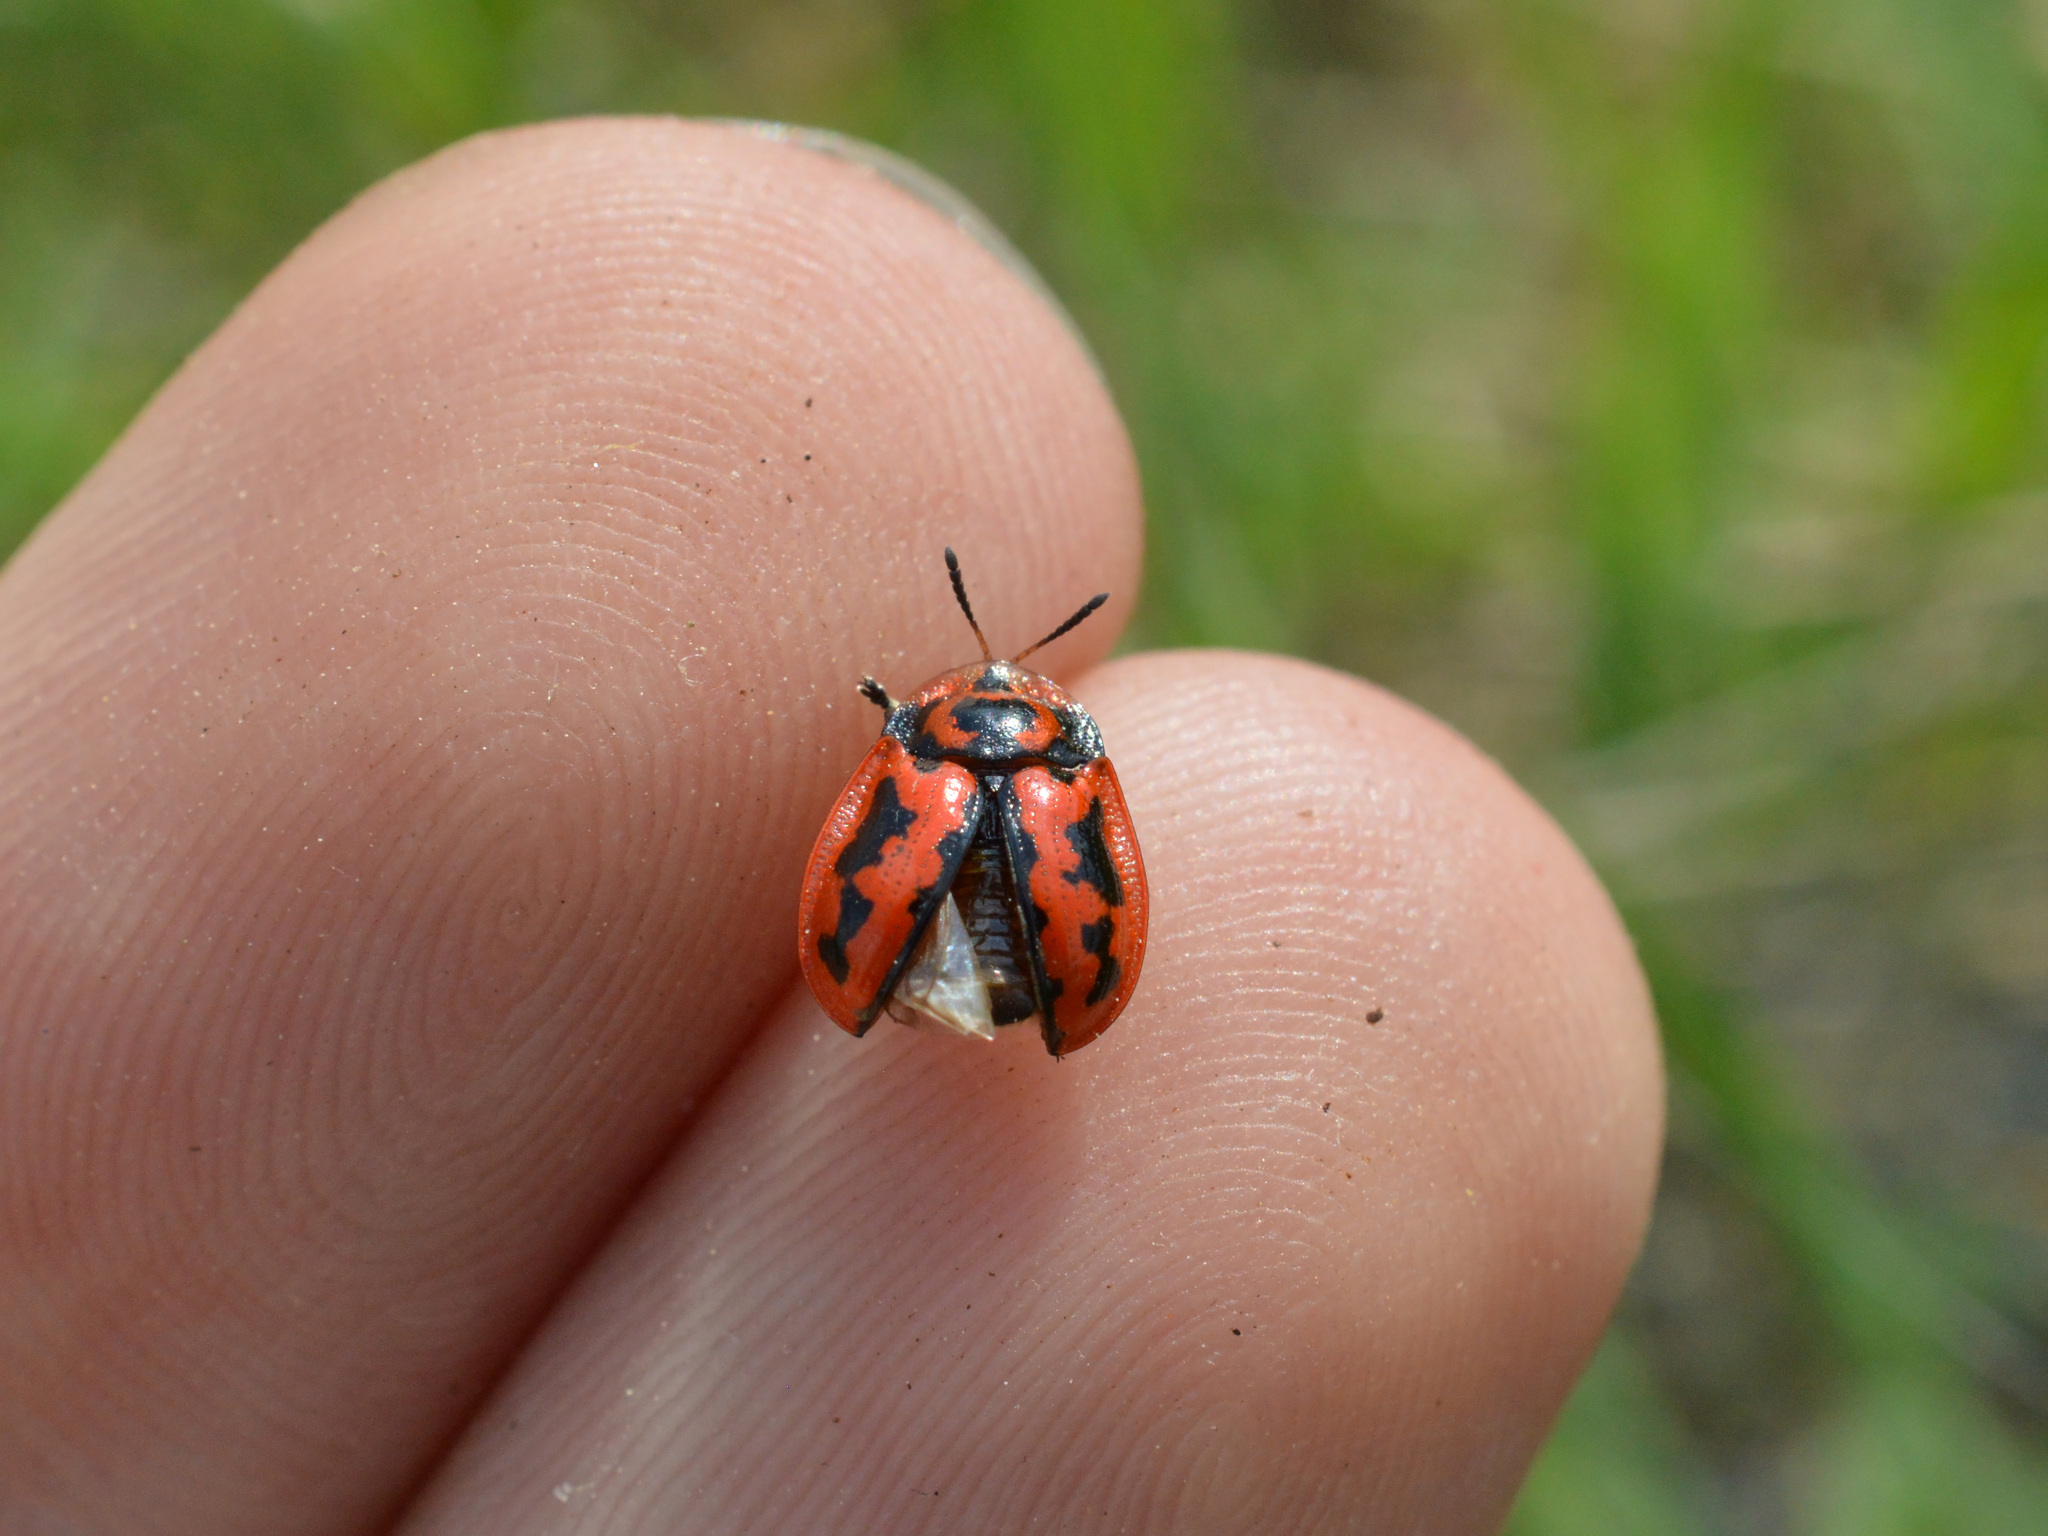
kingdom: Animalia
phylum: Arthropoda
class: Insecta
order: Coleoptera
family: Chrysomelidae
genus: Pilemostoma
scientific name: Pilemostoma fastuosa
